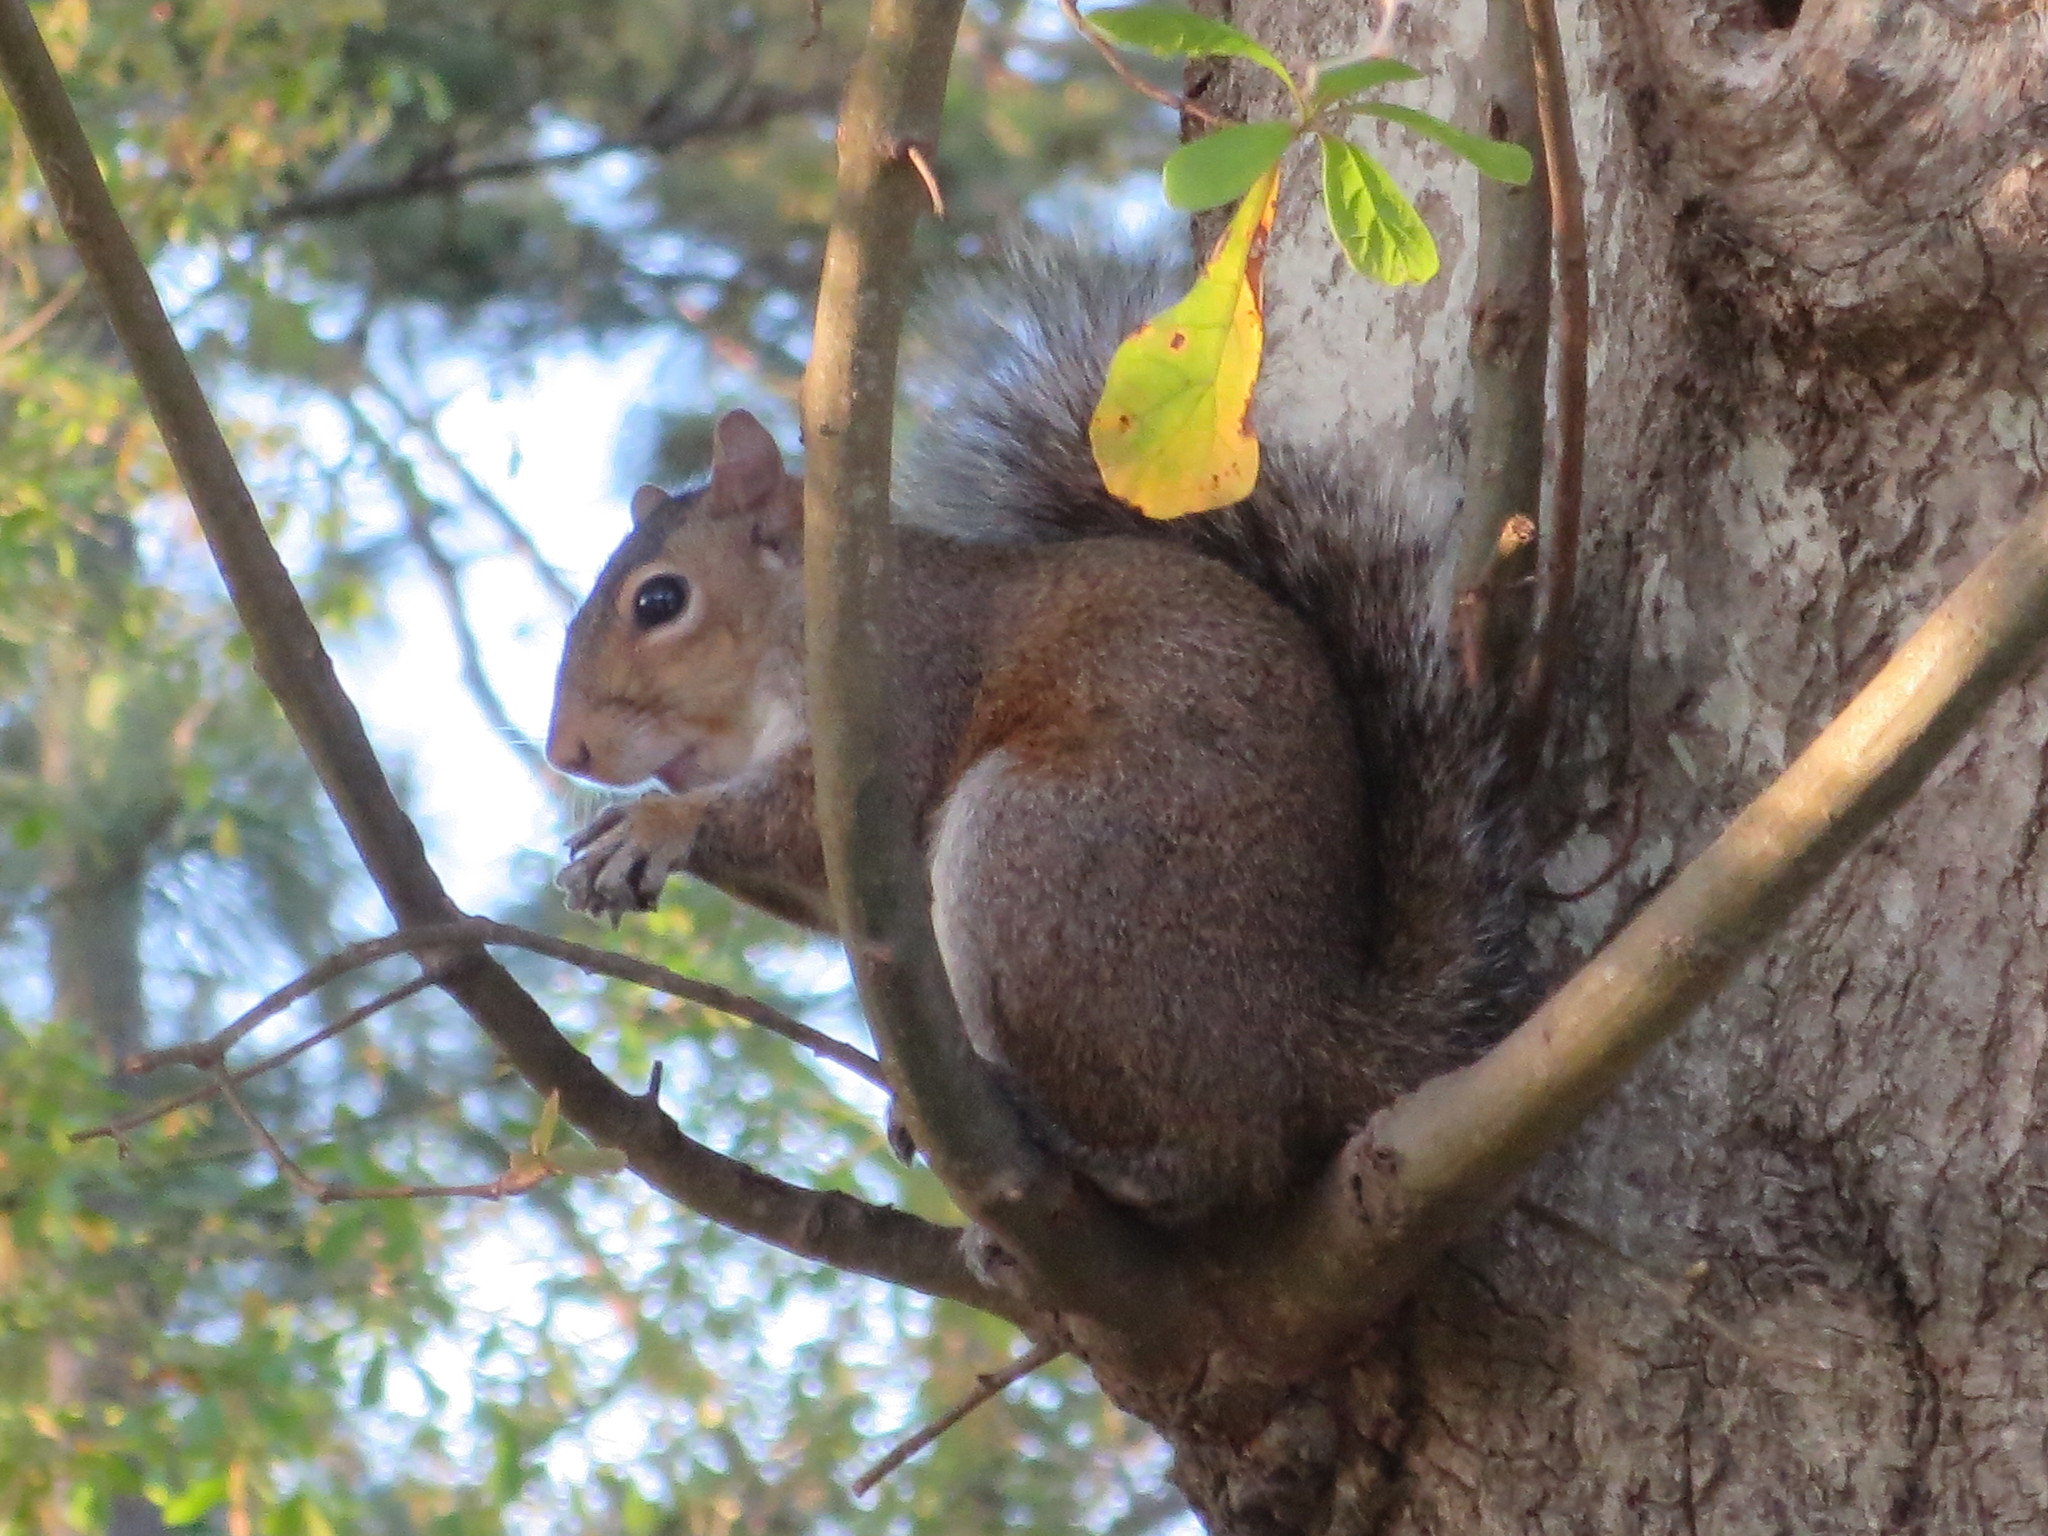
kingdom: Animalia
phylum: Chordata
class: Mammalia
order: Rodentia
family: Sciuridae
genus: Sciurus
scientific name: Sciurus carolinensis
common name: Eastern gray squirrel
